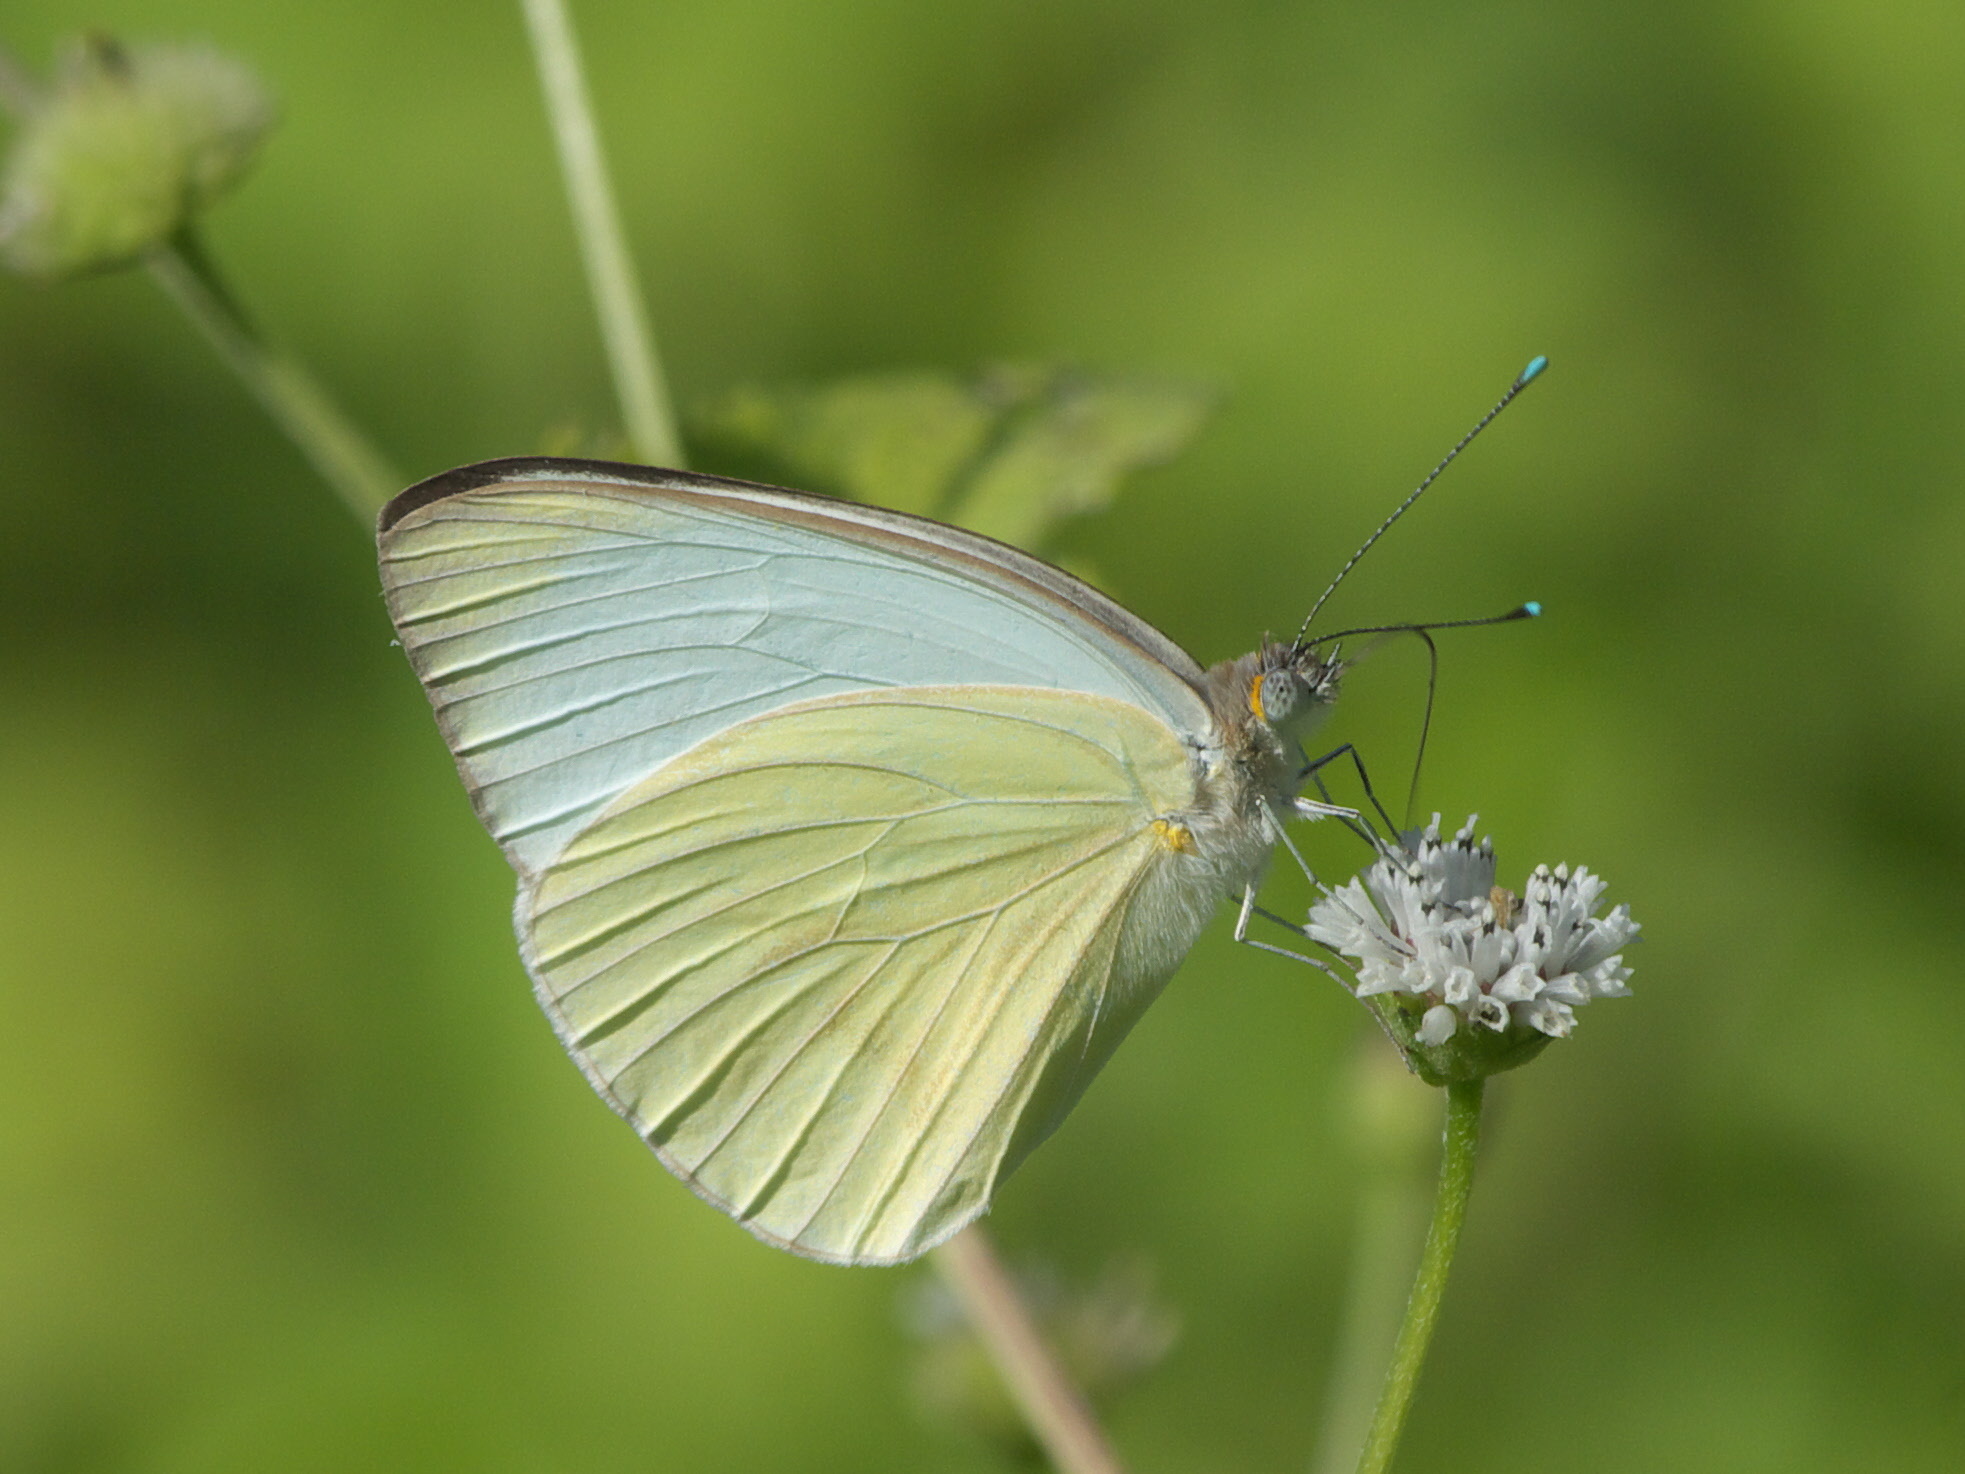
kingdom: Animalia
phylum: Arthropoda
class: Insecta
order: Lepidoptera
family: Pieridae
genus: Ascia
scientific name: Ascia monuste
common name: Great southern white
